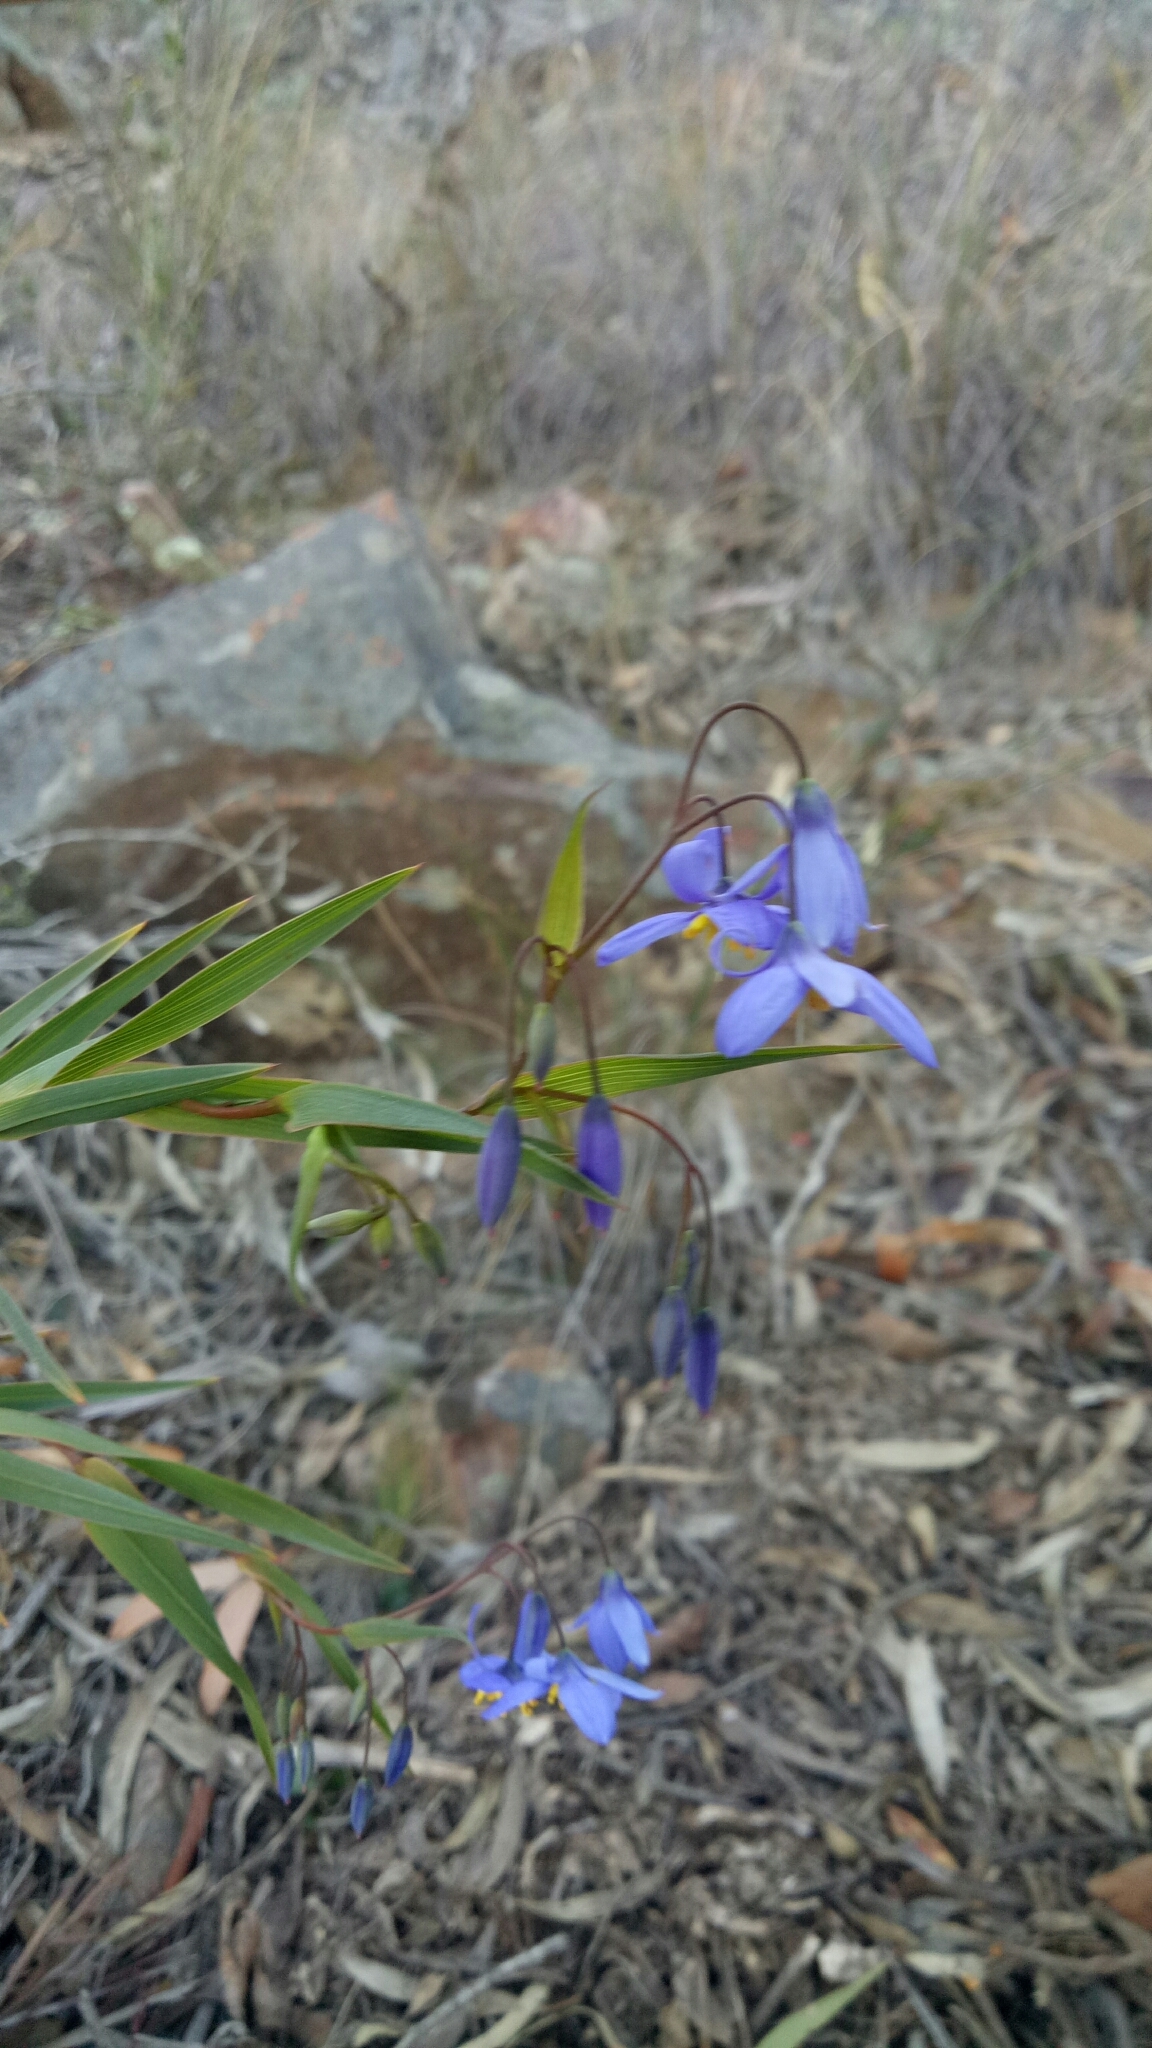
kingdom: Plantae
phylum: Tracheophyta
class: Liliopsida
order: Asparagales
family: Asphodelaceae
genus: Stypandra
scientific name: Stypandra glauca
